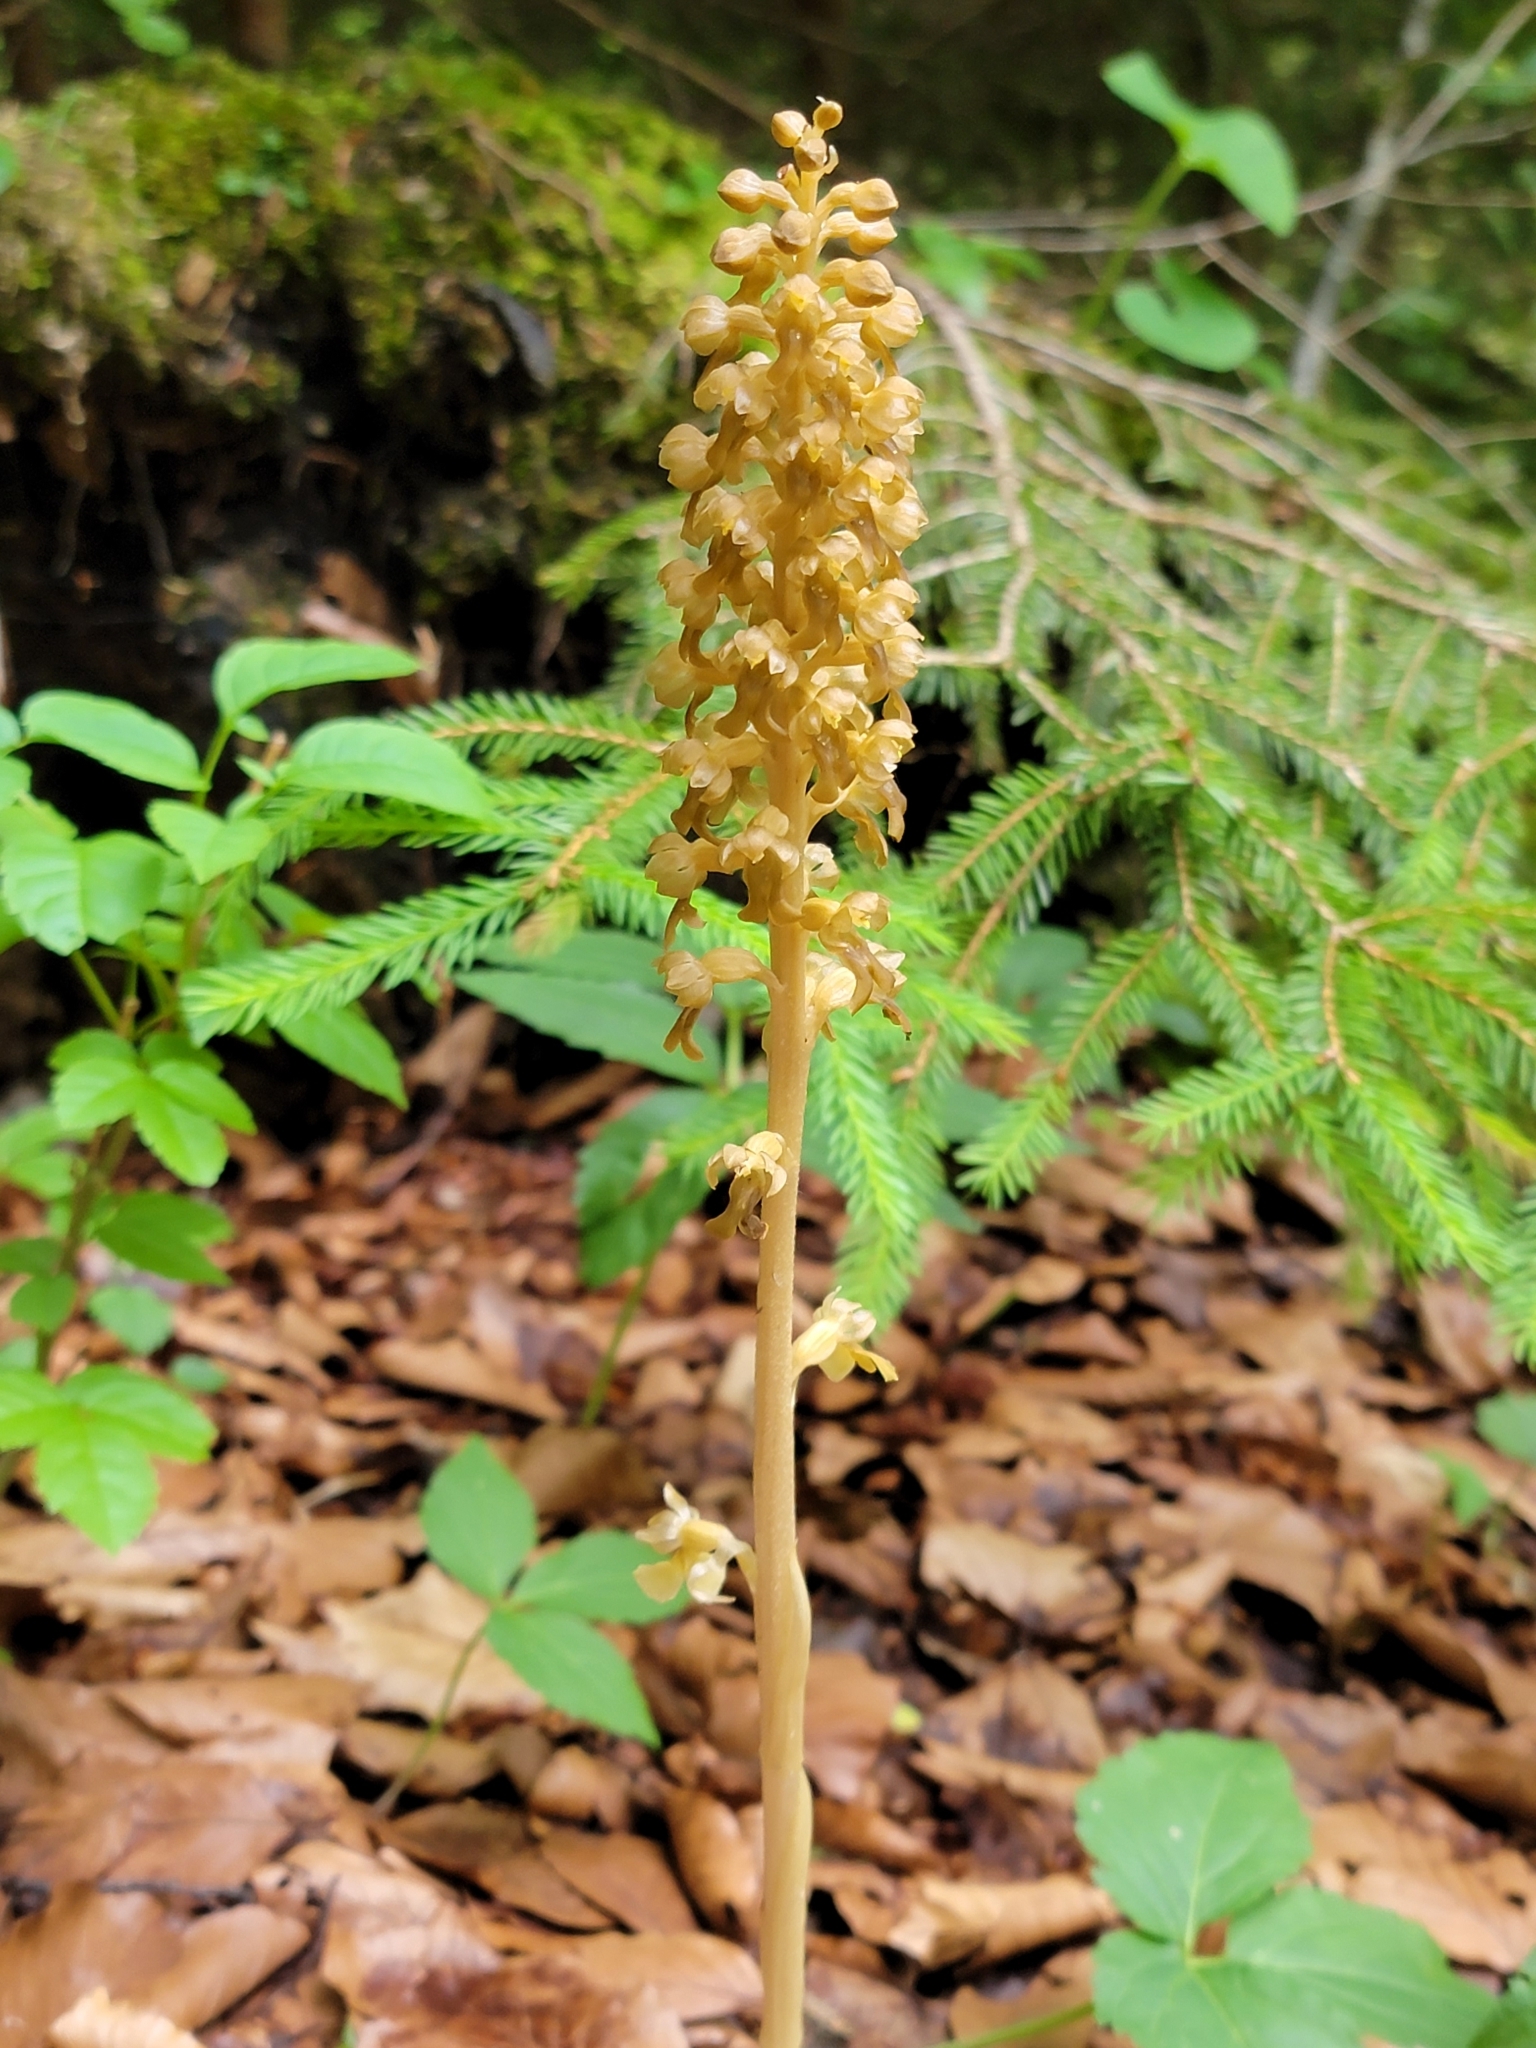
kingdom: Plantae
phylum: Tracheophyta
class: Liliopsida
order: Asparagales
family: Orchidaceae
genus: Neottia
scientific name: Neottia nidus-avis
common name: Bird's-nest orchid
